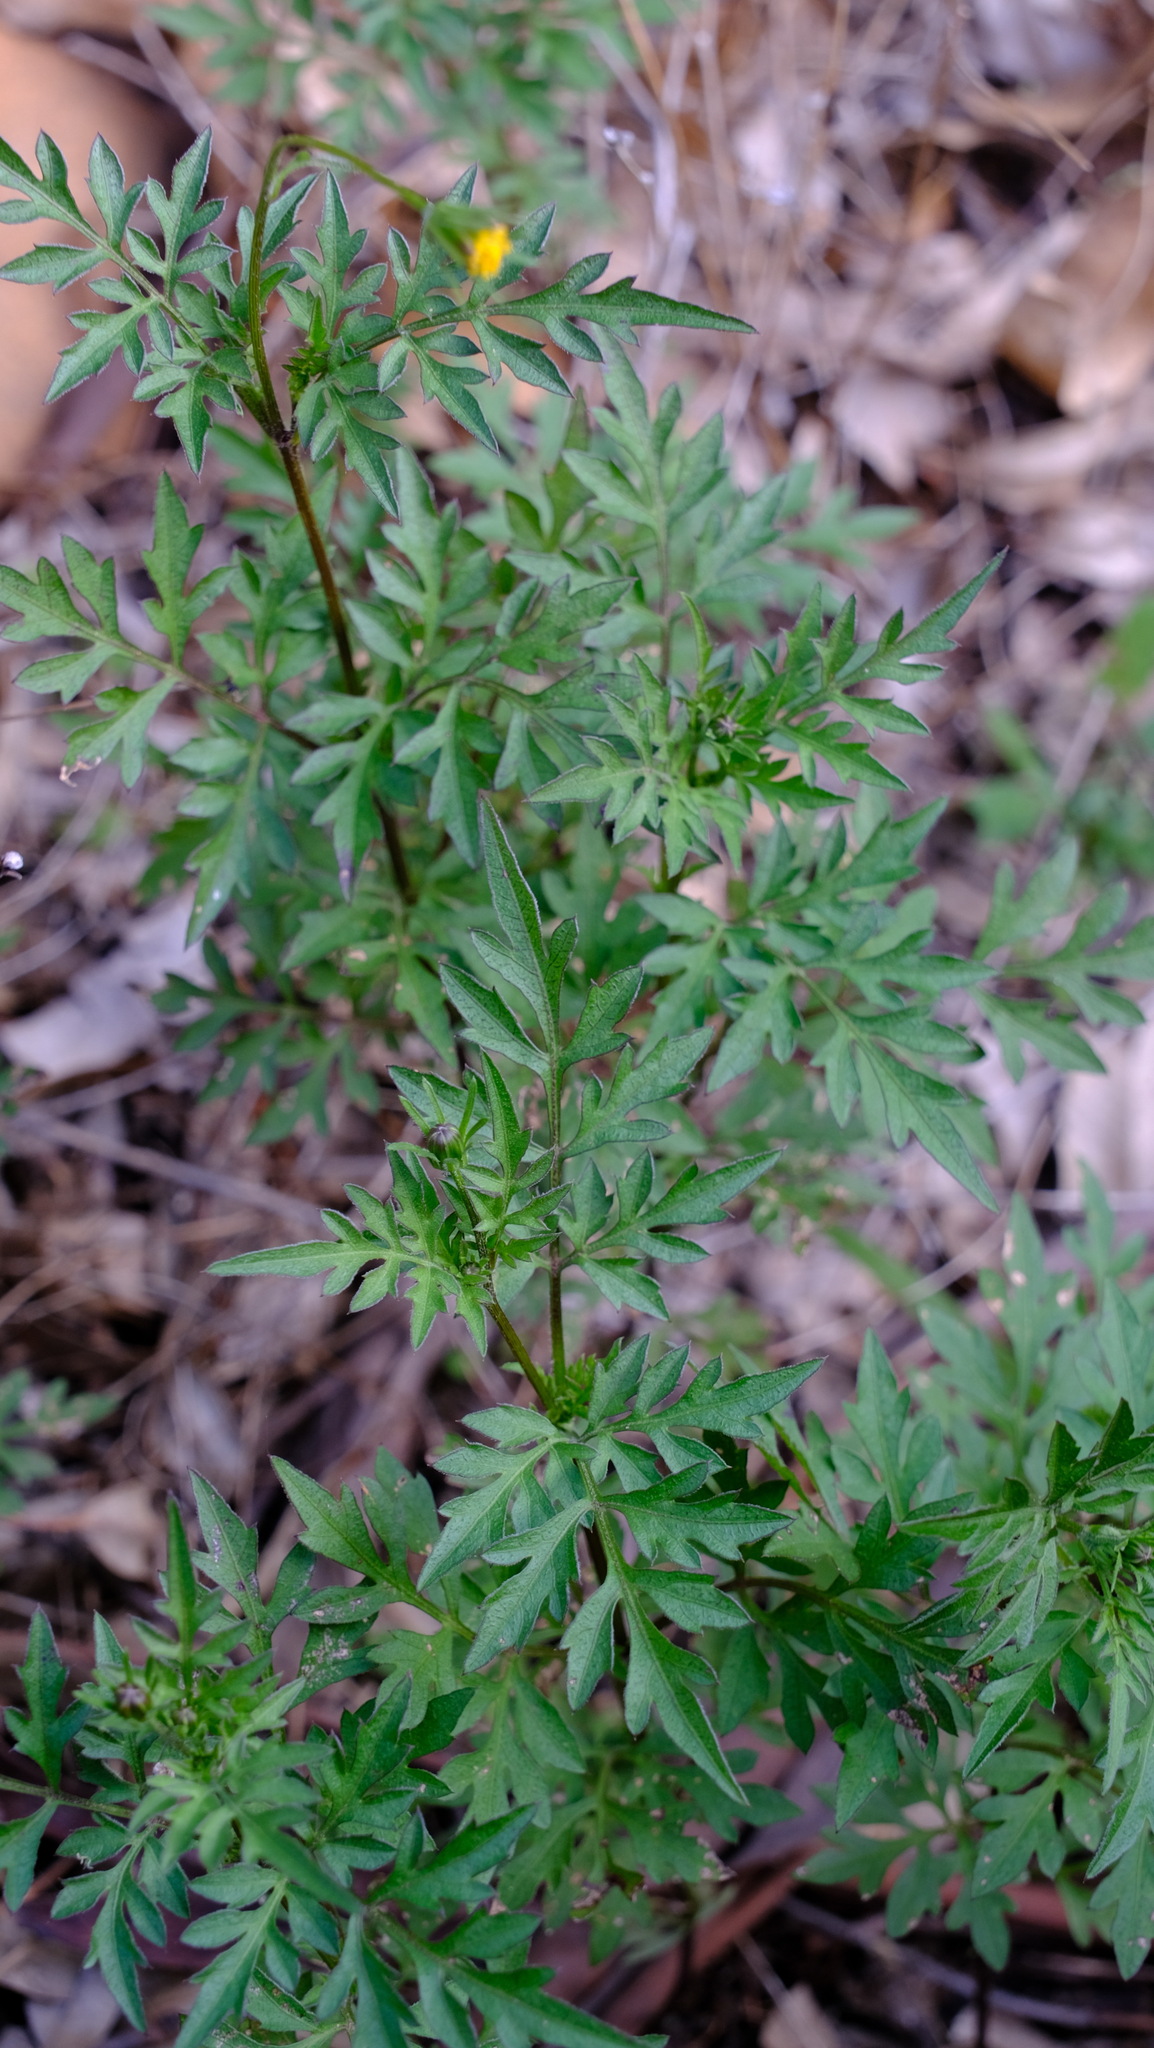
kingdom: Plantae
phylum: Tracheophyta
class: Magnoliopsida
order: Asterales
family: Asteraceae
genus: Bidens
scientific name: Bidens bipinnata
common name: Spanish-needles
